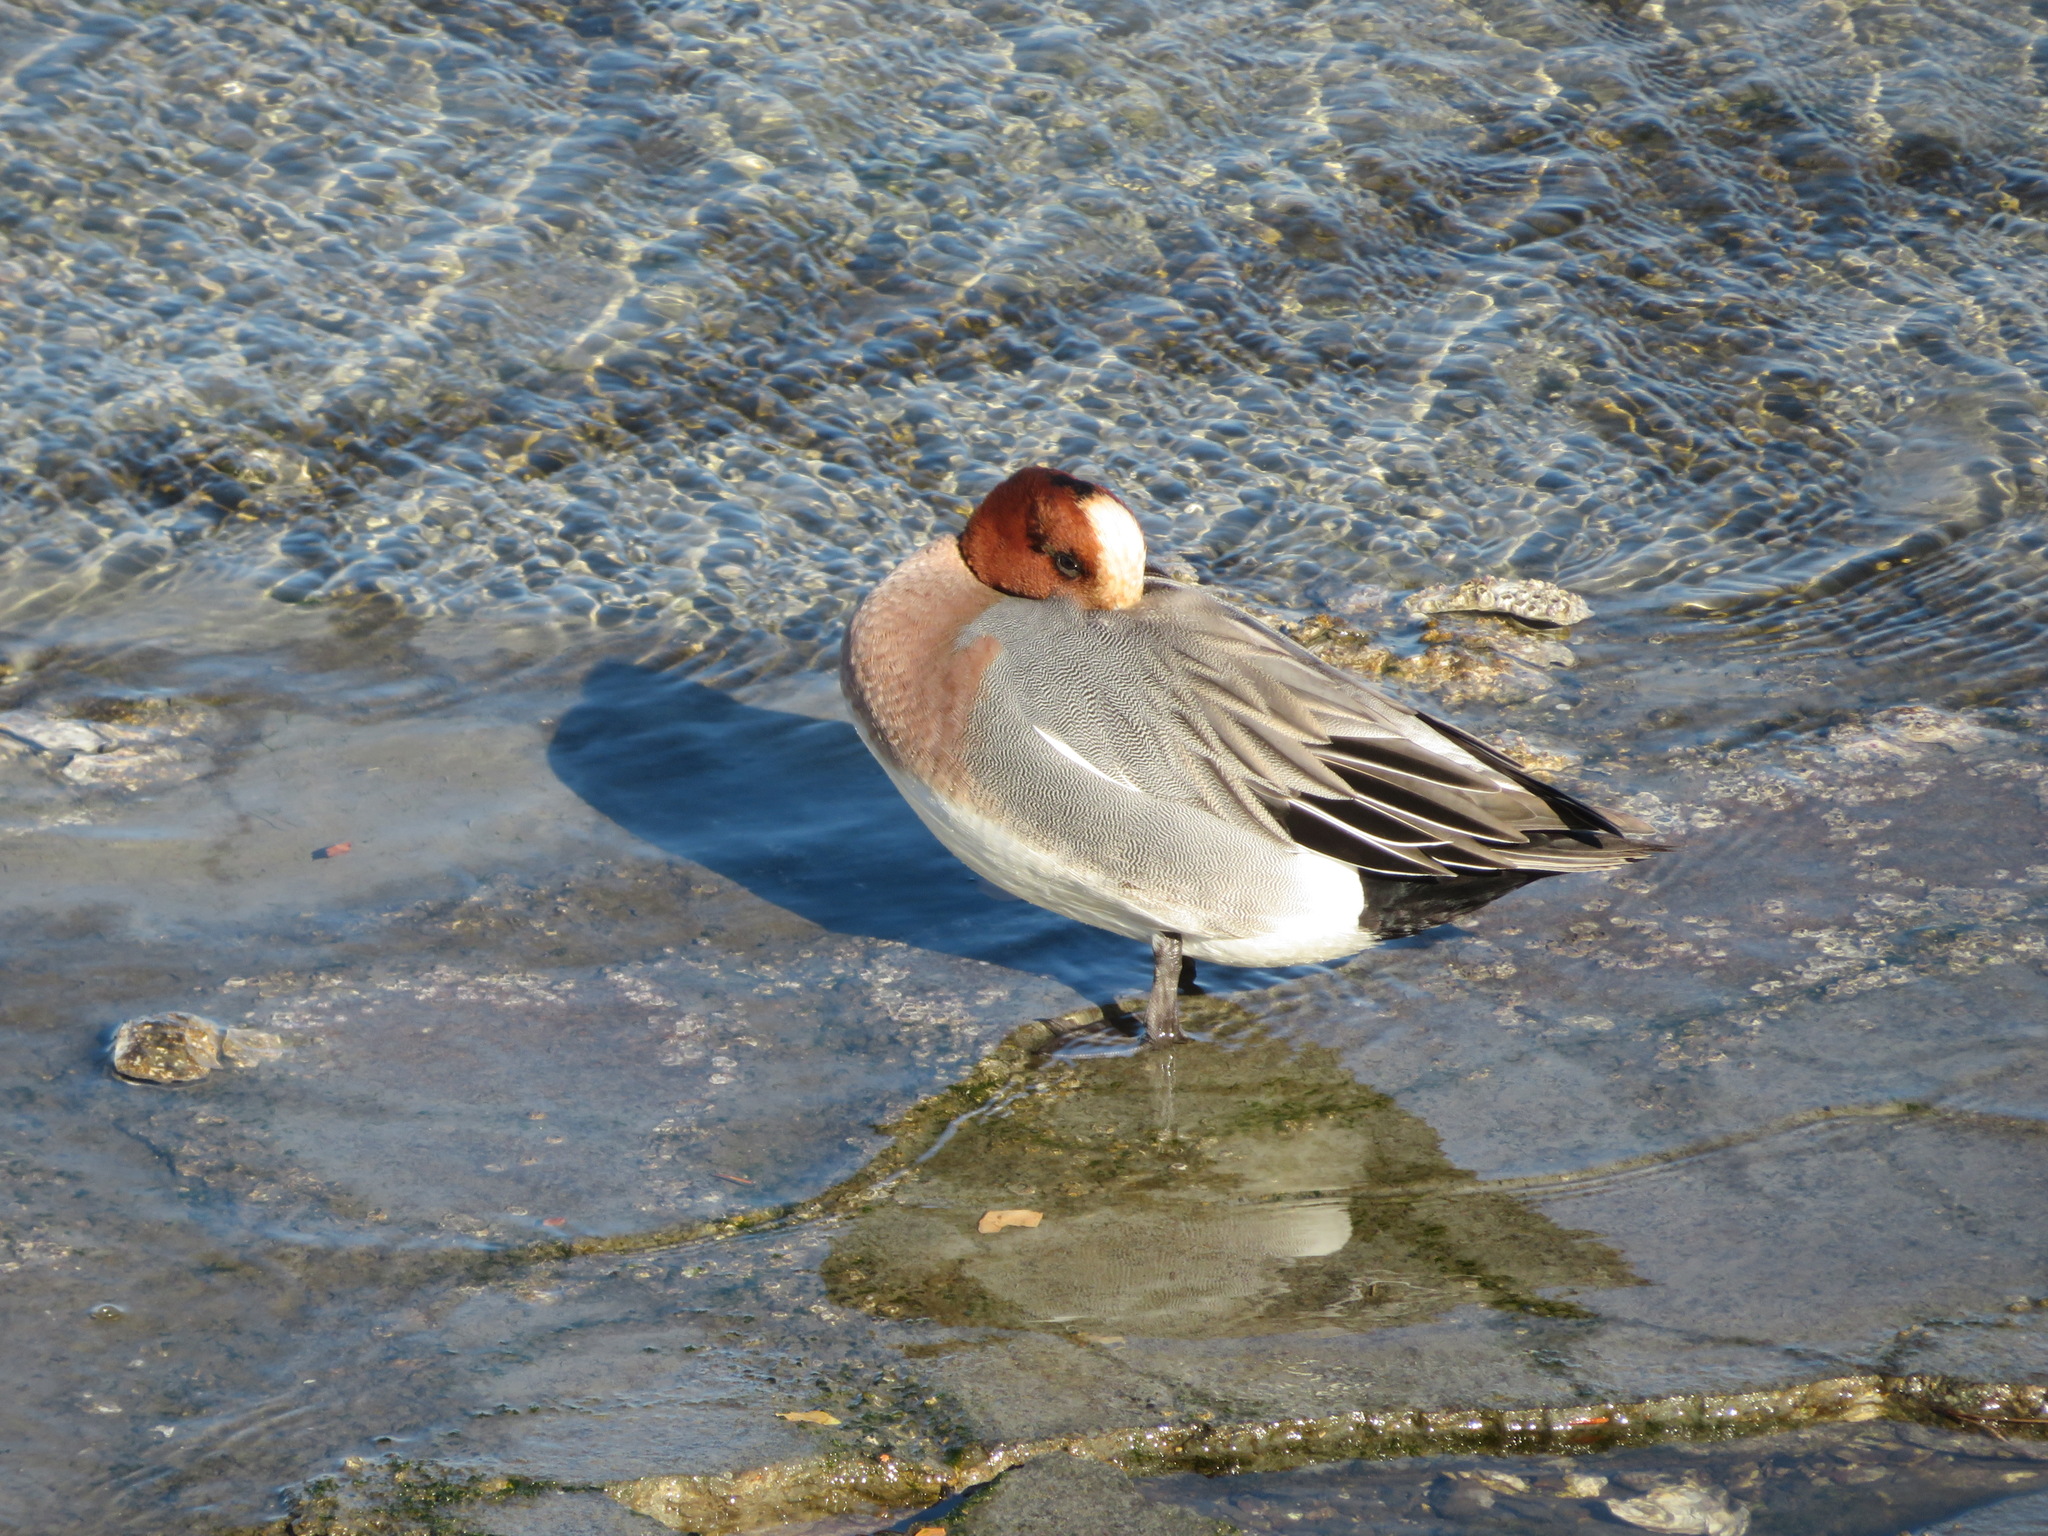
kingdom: Animalia
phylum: Chordata
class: Aves
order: Anseriformes
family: Anatidae
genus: Mareca
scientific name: Mareca penelope
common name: Eurasian wigeon
